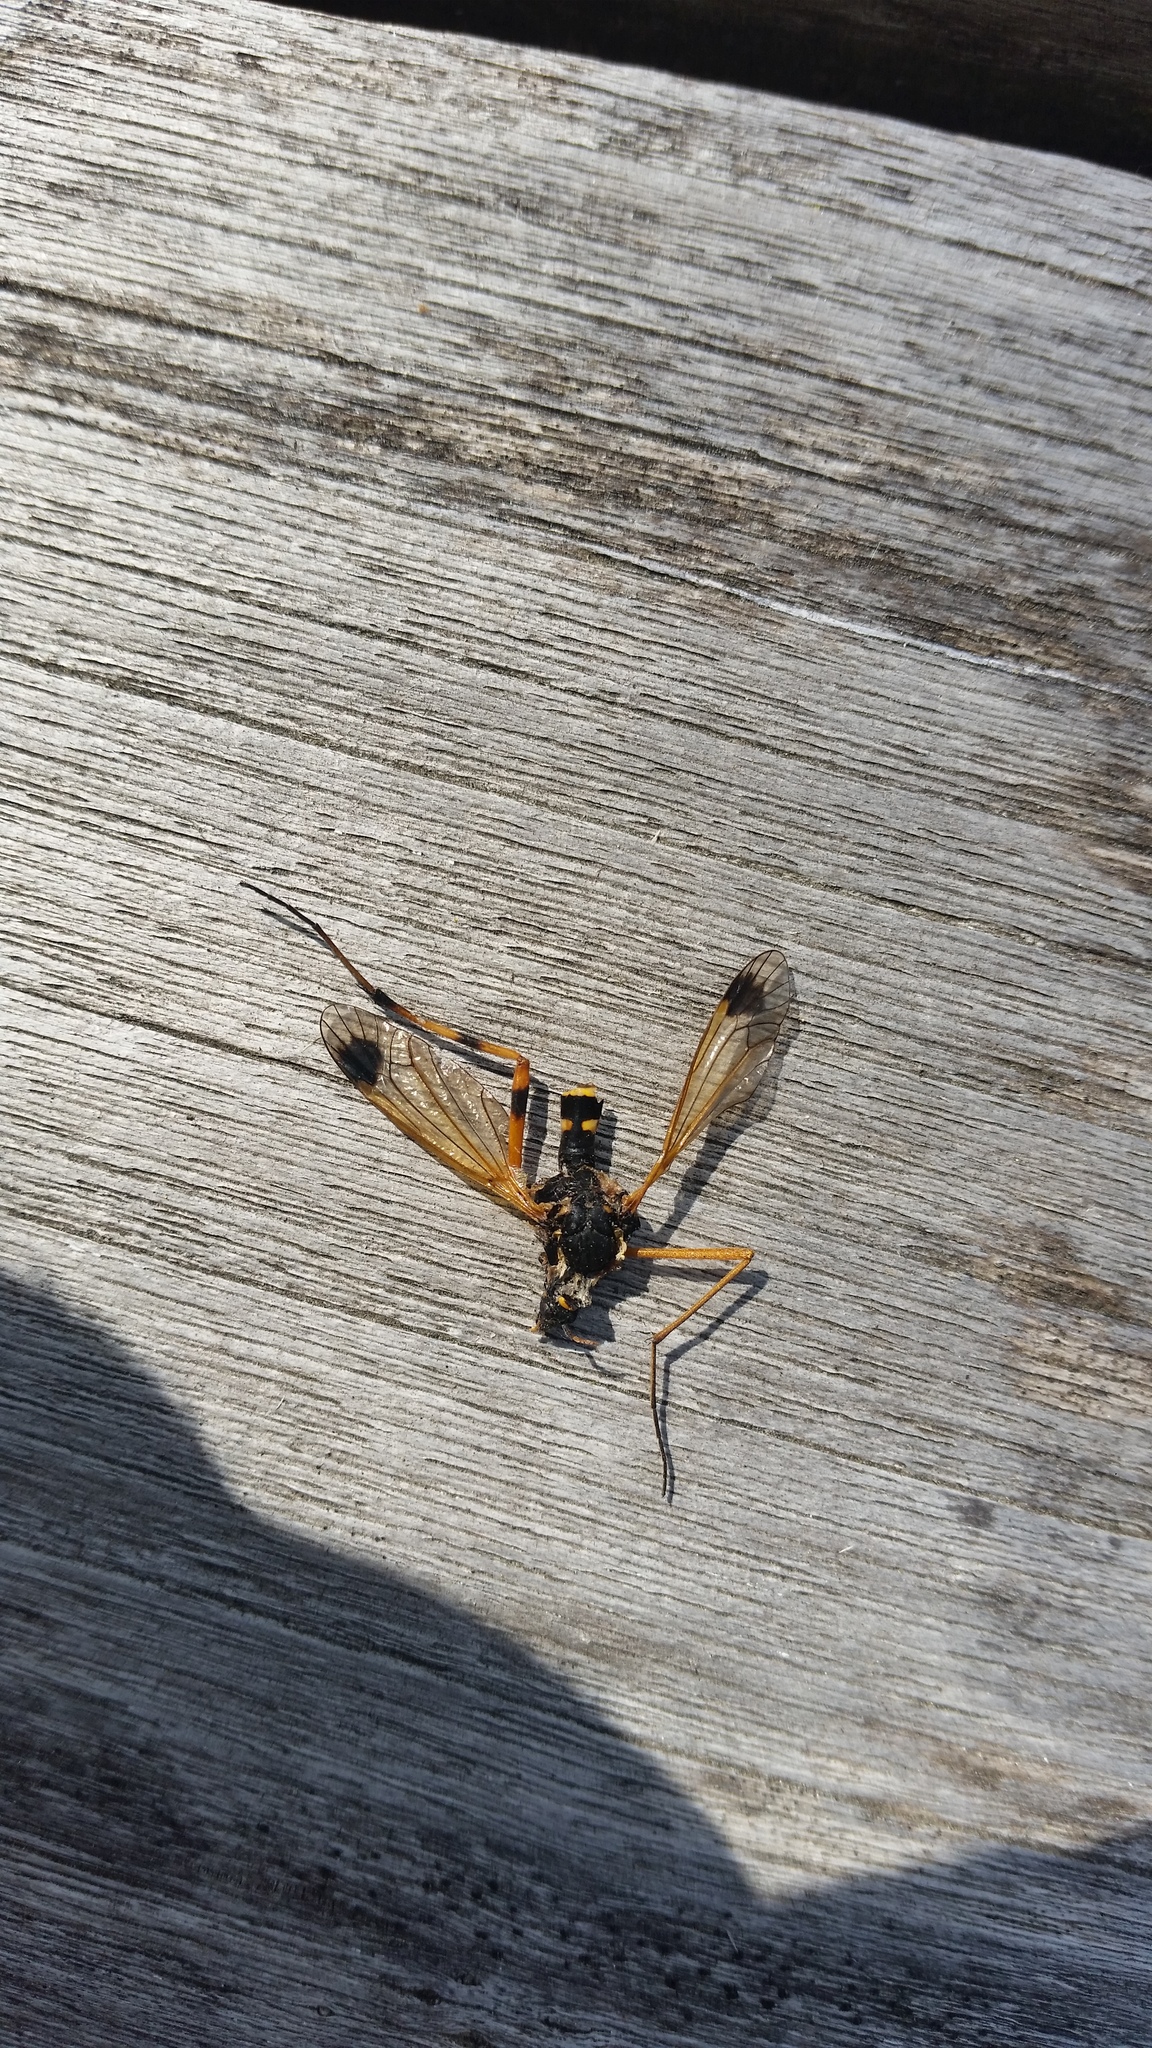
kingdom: Animalia
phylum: Arthropoda
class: Insecta
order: Diptera
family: Tipulidae
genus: Ctenophora
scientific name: Ctenophora festiva
